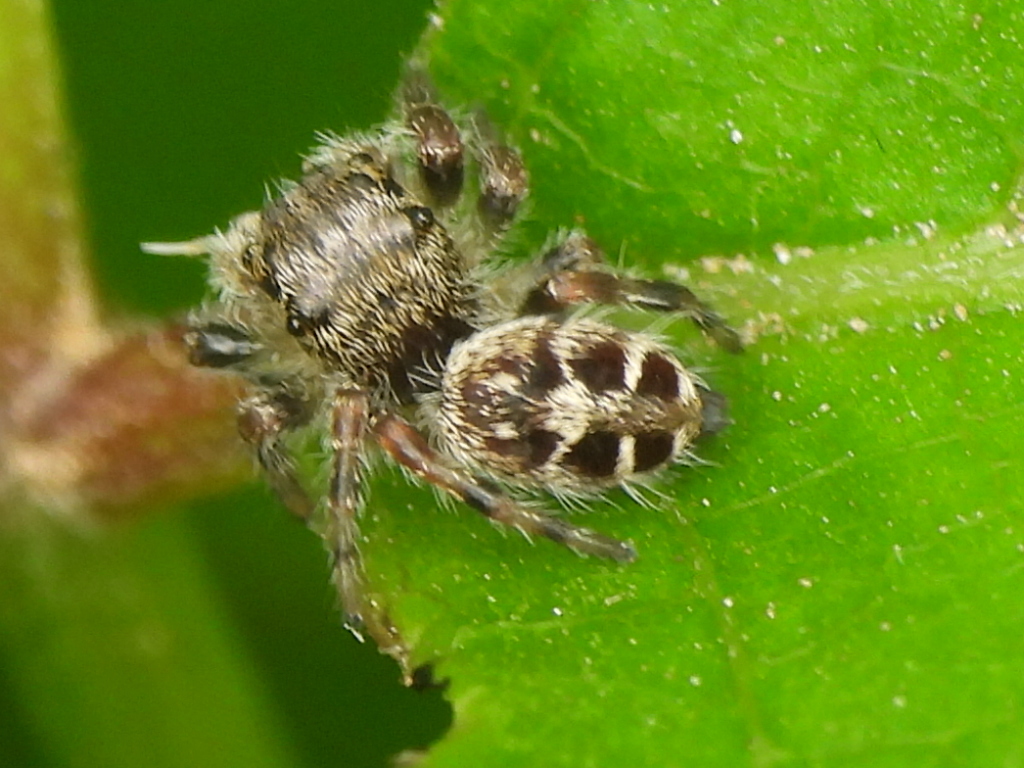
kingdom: Animalia
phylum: Arthropoda
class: Arachnida
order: Araneae
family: Salticidae
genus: Phidippus
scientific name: Phidippus carolinensis
